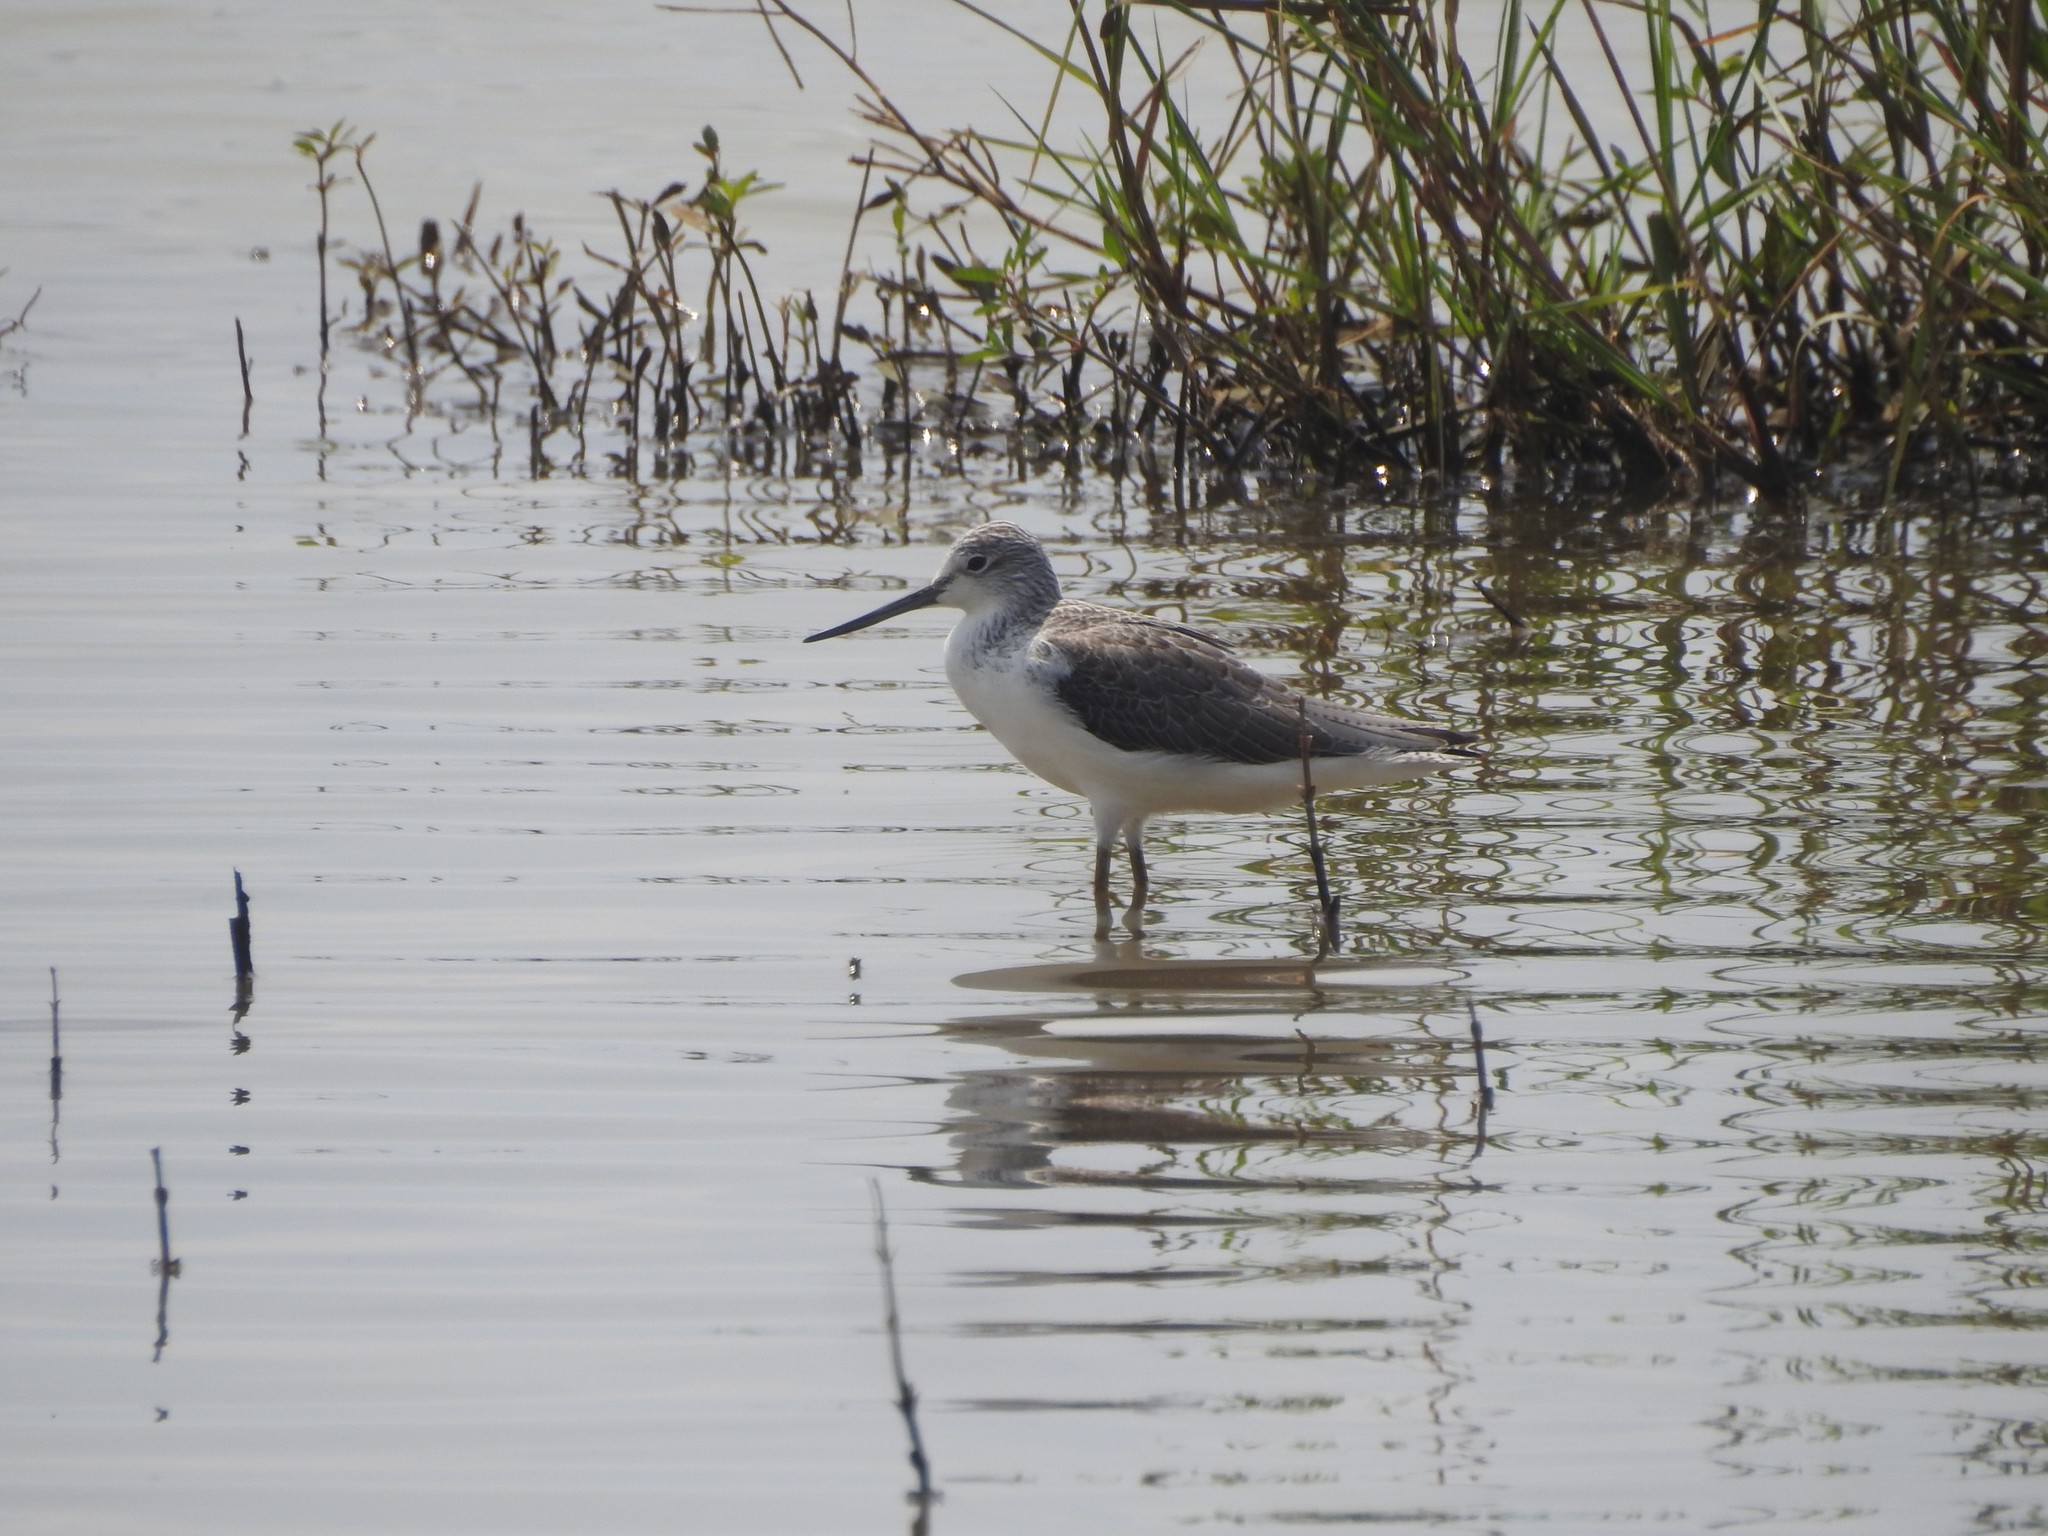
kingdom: Animalia
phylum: Chordata
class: Aves
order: Charadriiformes
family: Scolopacidae
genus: Tringa
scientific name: Tringa nebularia
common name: Common greenshank
